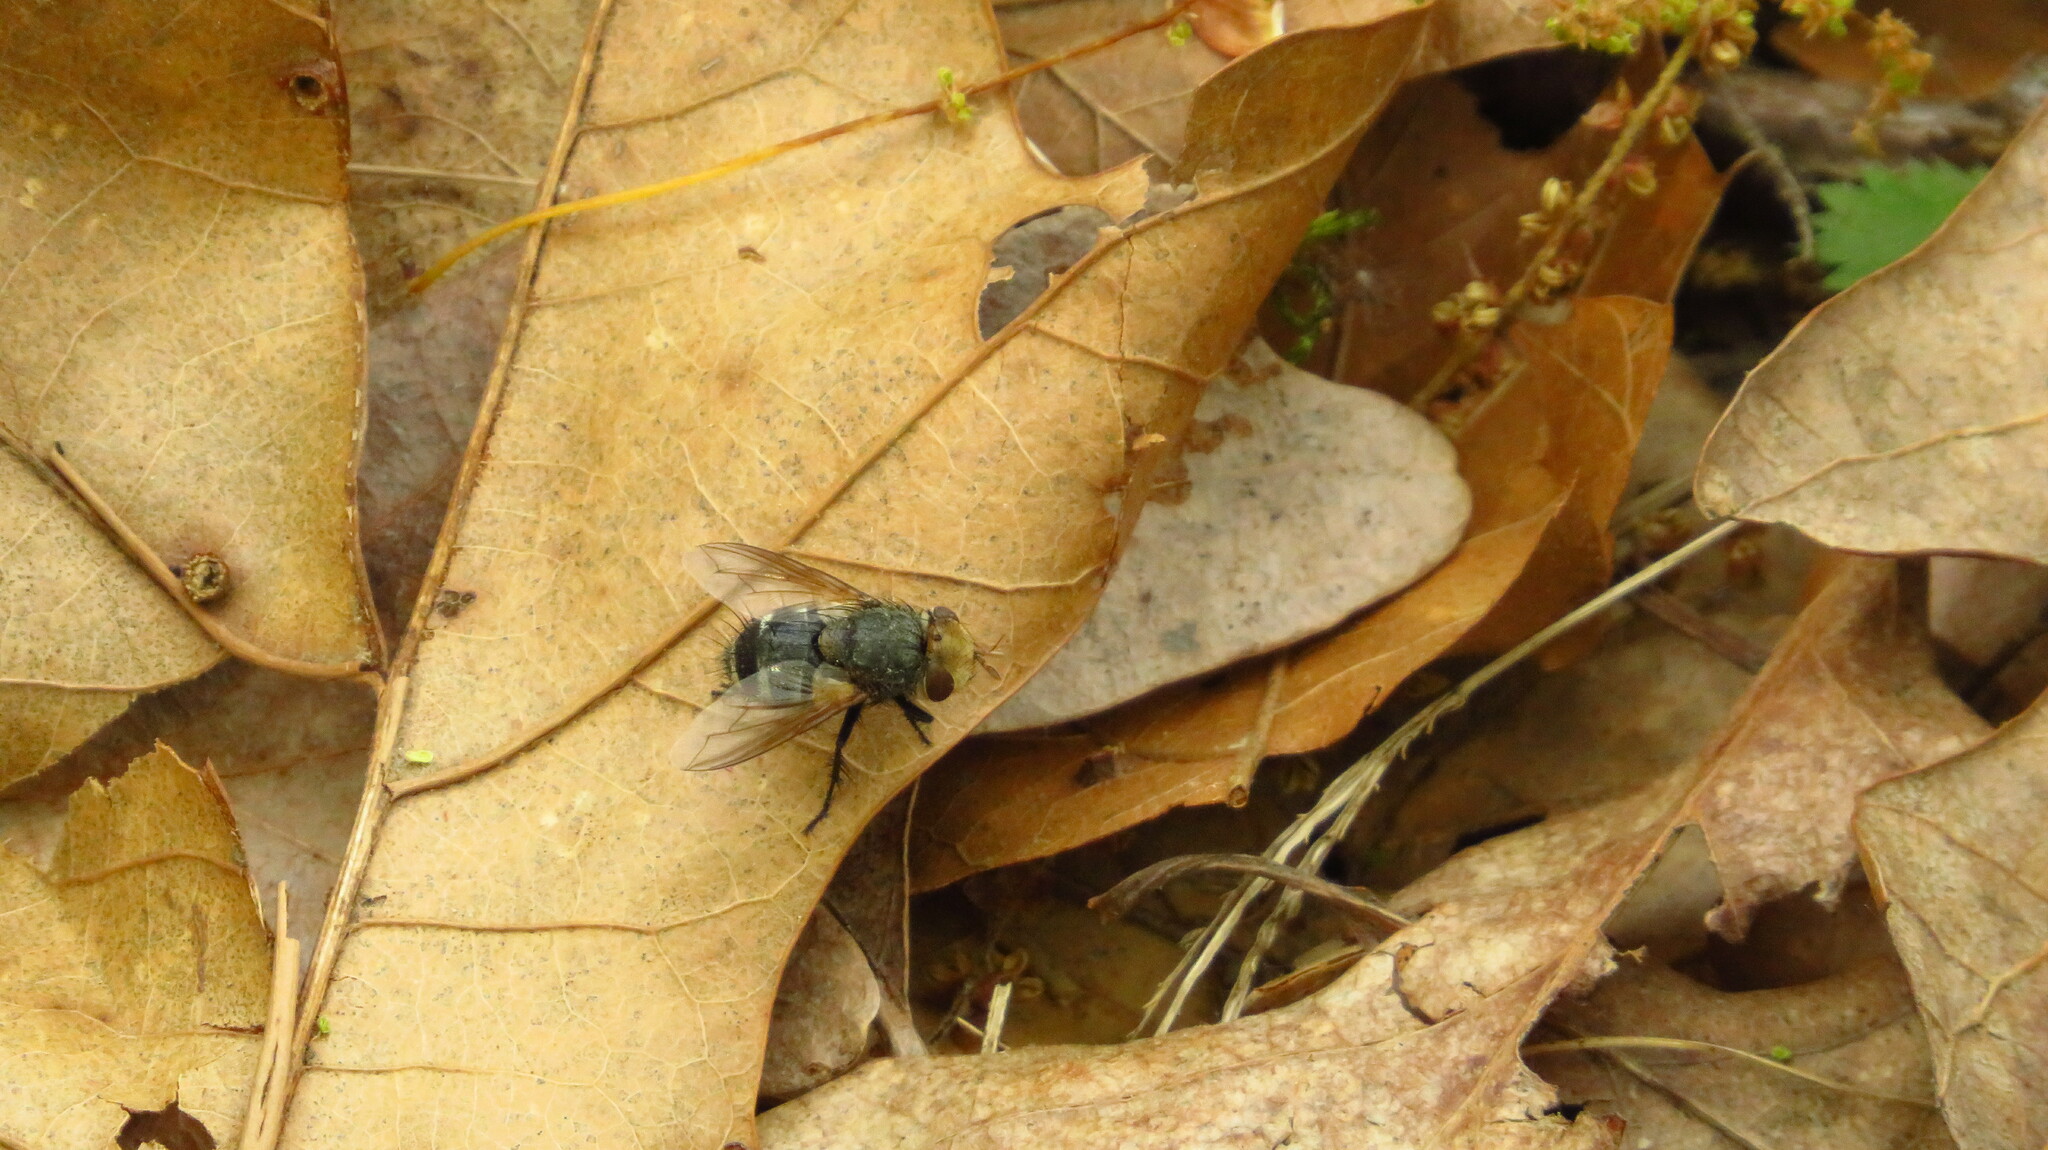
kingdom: Animalia
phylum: Arthropoda
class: Insecta
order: Diptera
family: Tachinidae
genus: Gonia
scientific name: Gonia
